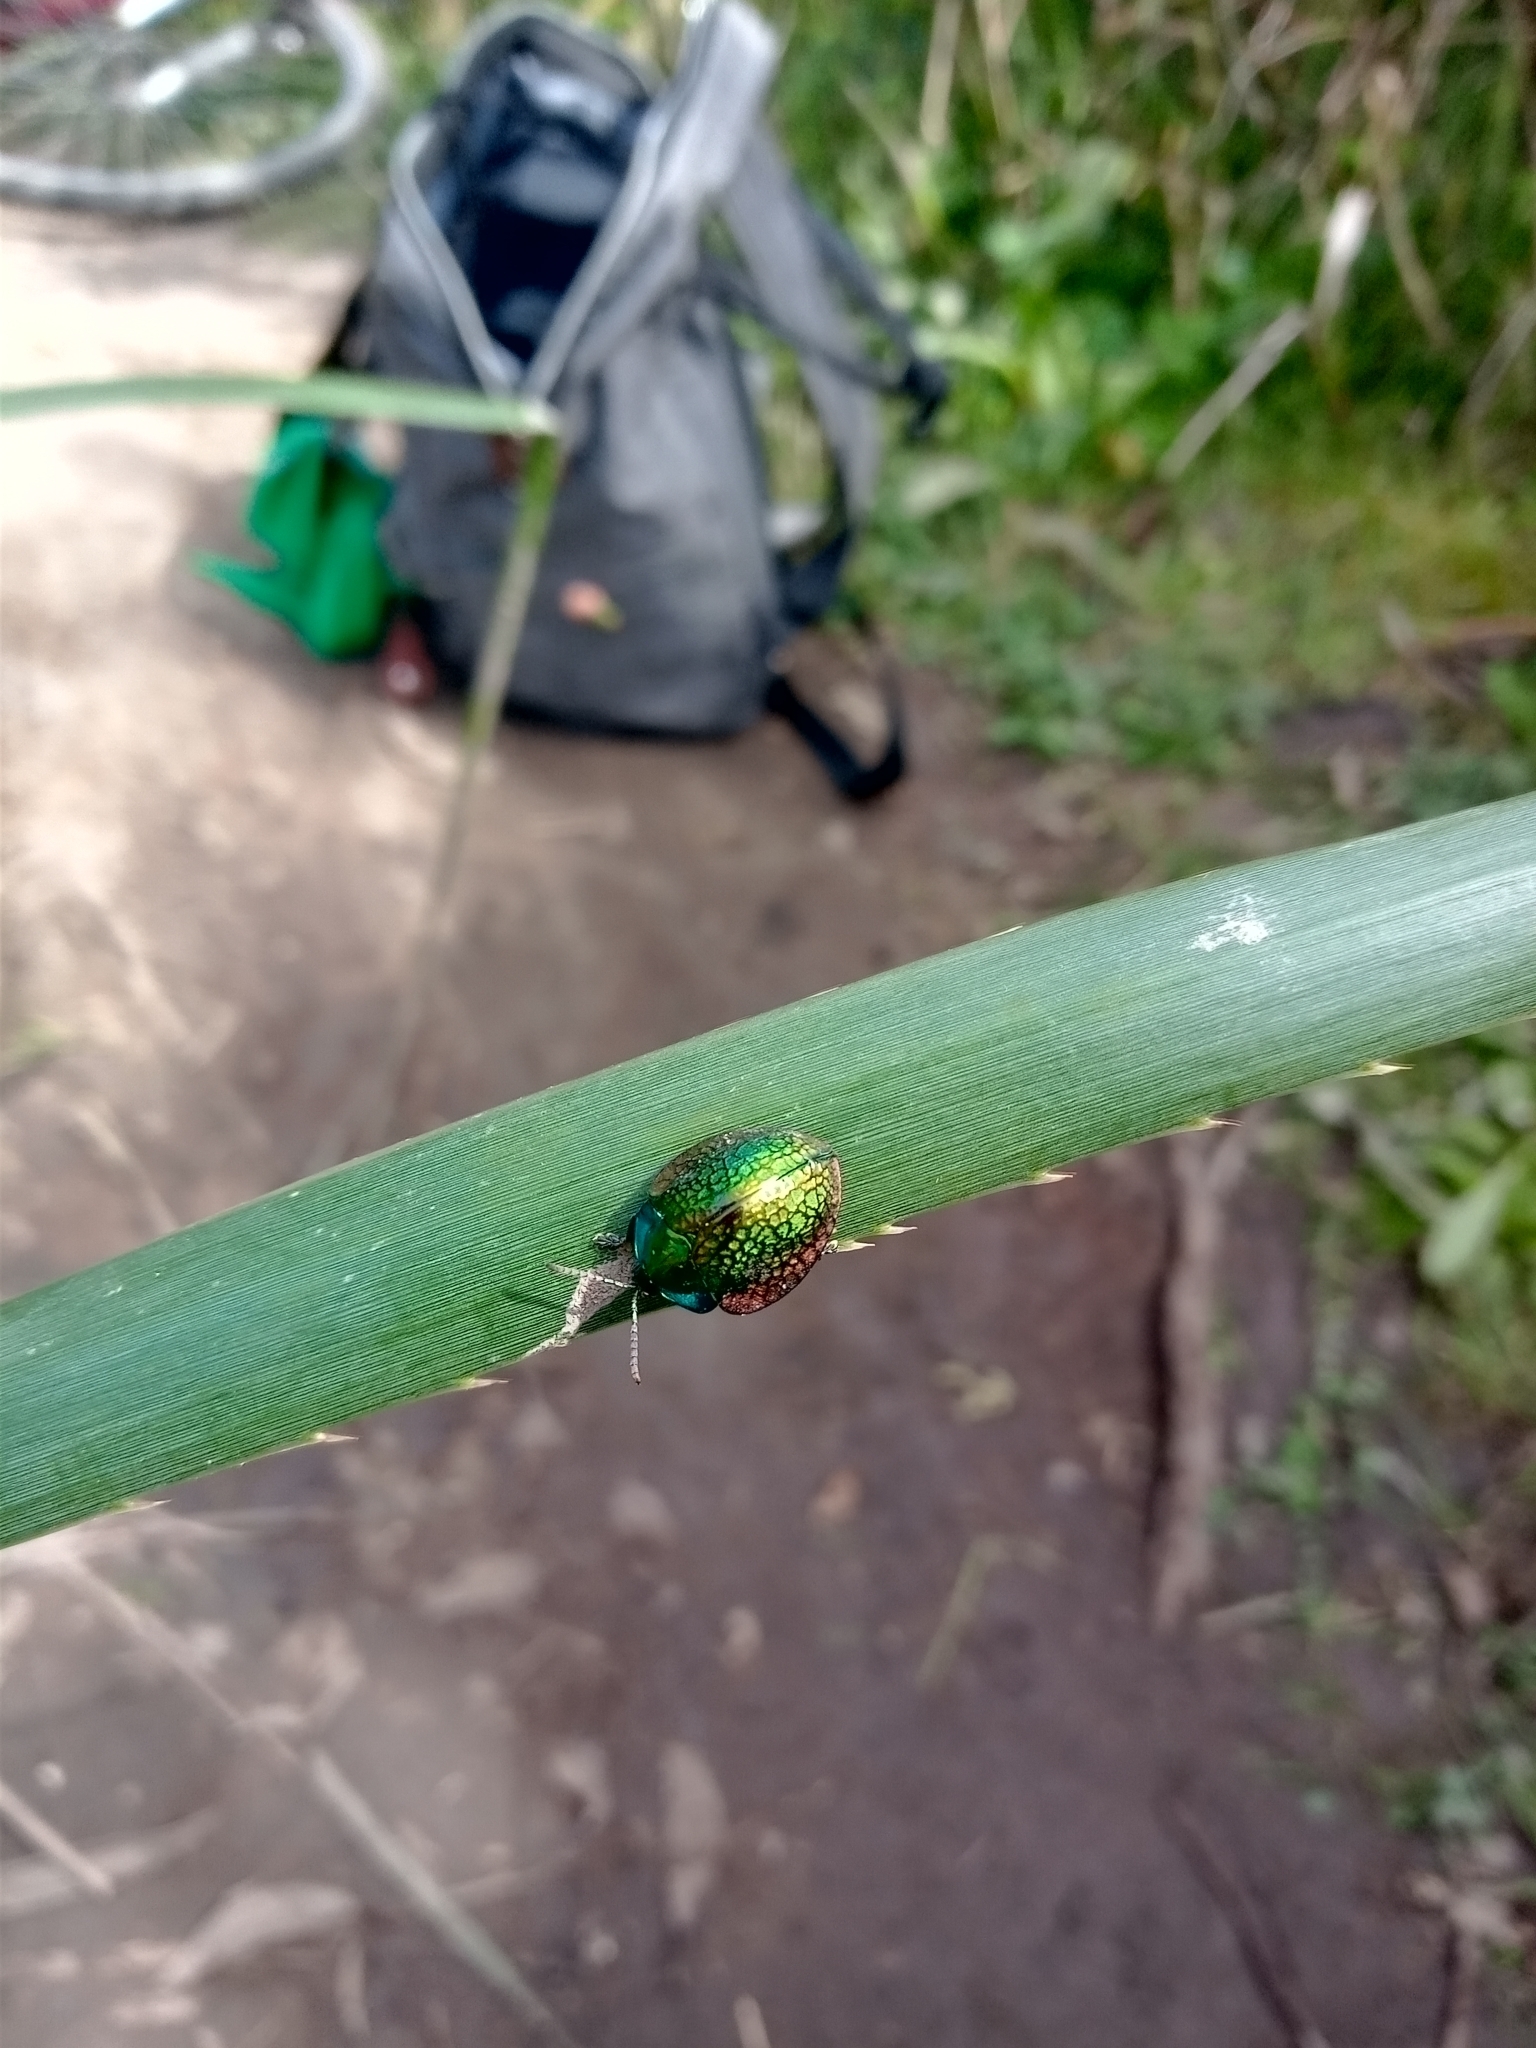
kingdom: Animalia
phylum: Arthropoda
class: Insecta
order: Coleoptera
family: Chrysomelidae
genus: Stolas
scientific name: Stolas festiva
